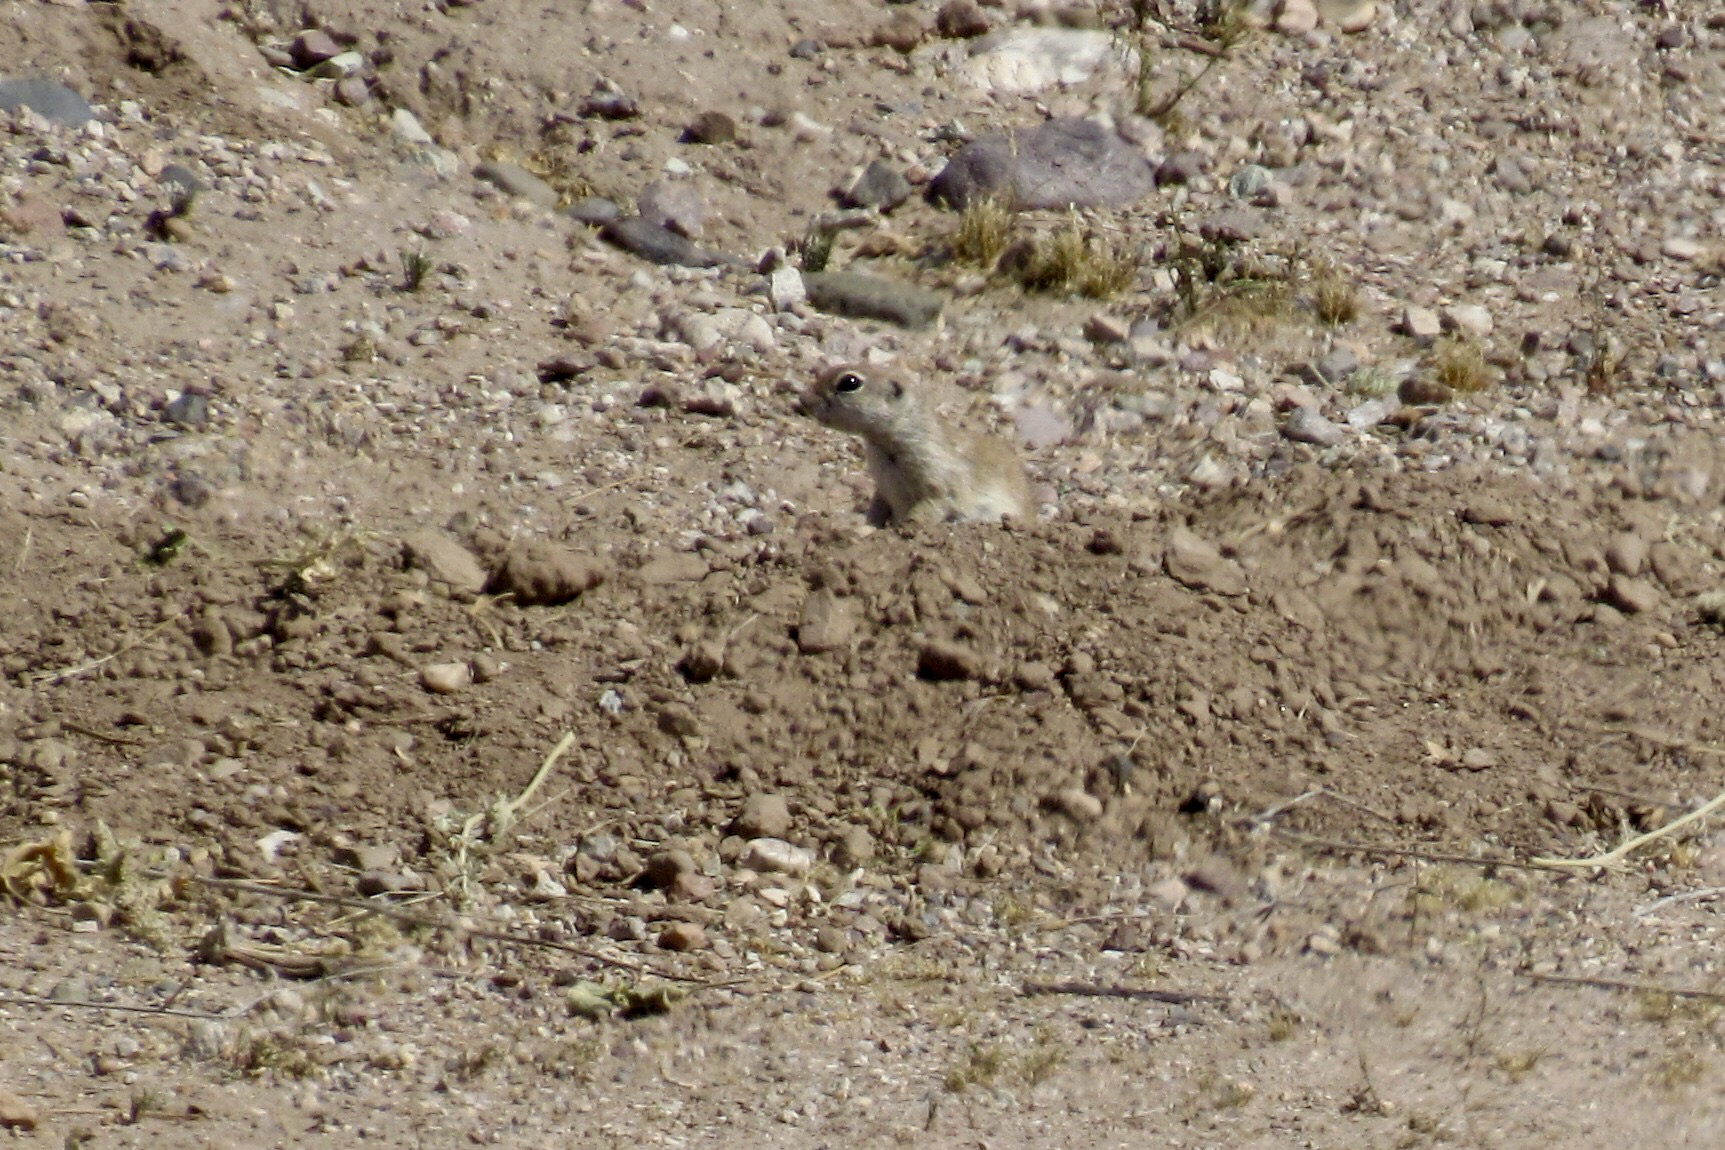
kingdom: Animalia
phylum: Chordata
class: Mammalia
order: Rodentia
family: Sciuridae
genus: Xerospermophilus
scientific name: Xerospermophilus tereticaudus
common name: Round-tailed ground squirrel
